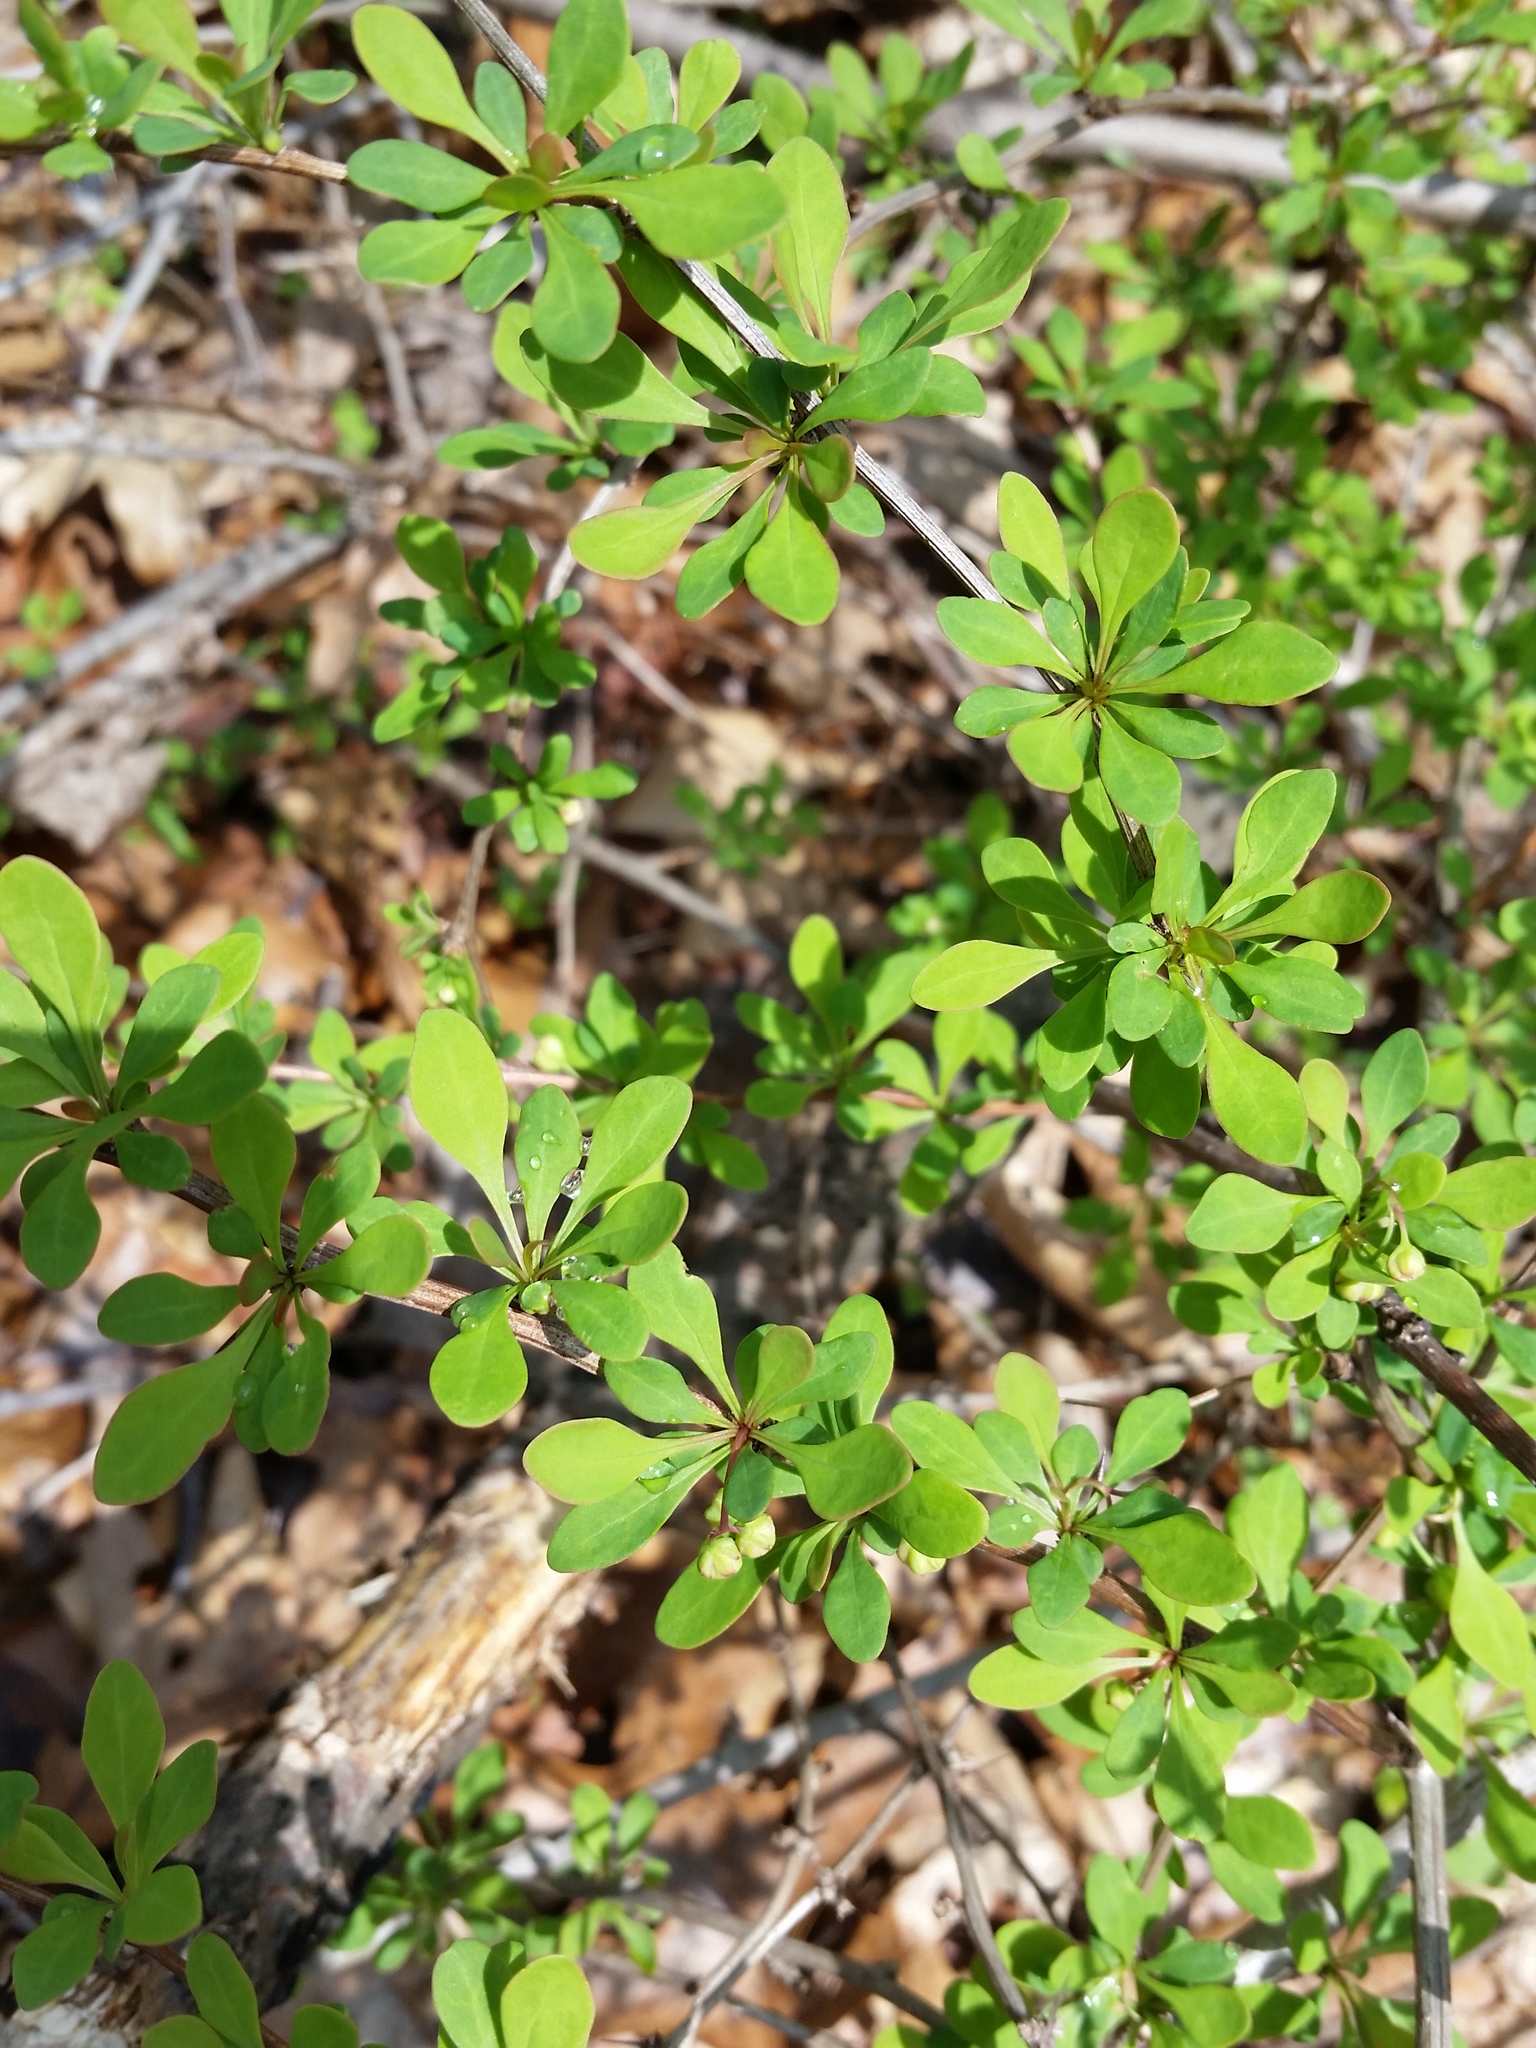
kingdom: Plantae
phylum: Tracheophyta
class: Magnoliopsida
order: Ranunculales
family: Berberidaceae
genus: Berberis
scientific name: Berberis thunbergii
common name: Japanese barberry
